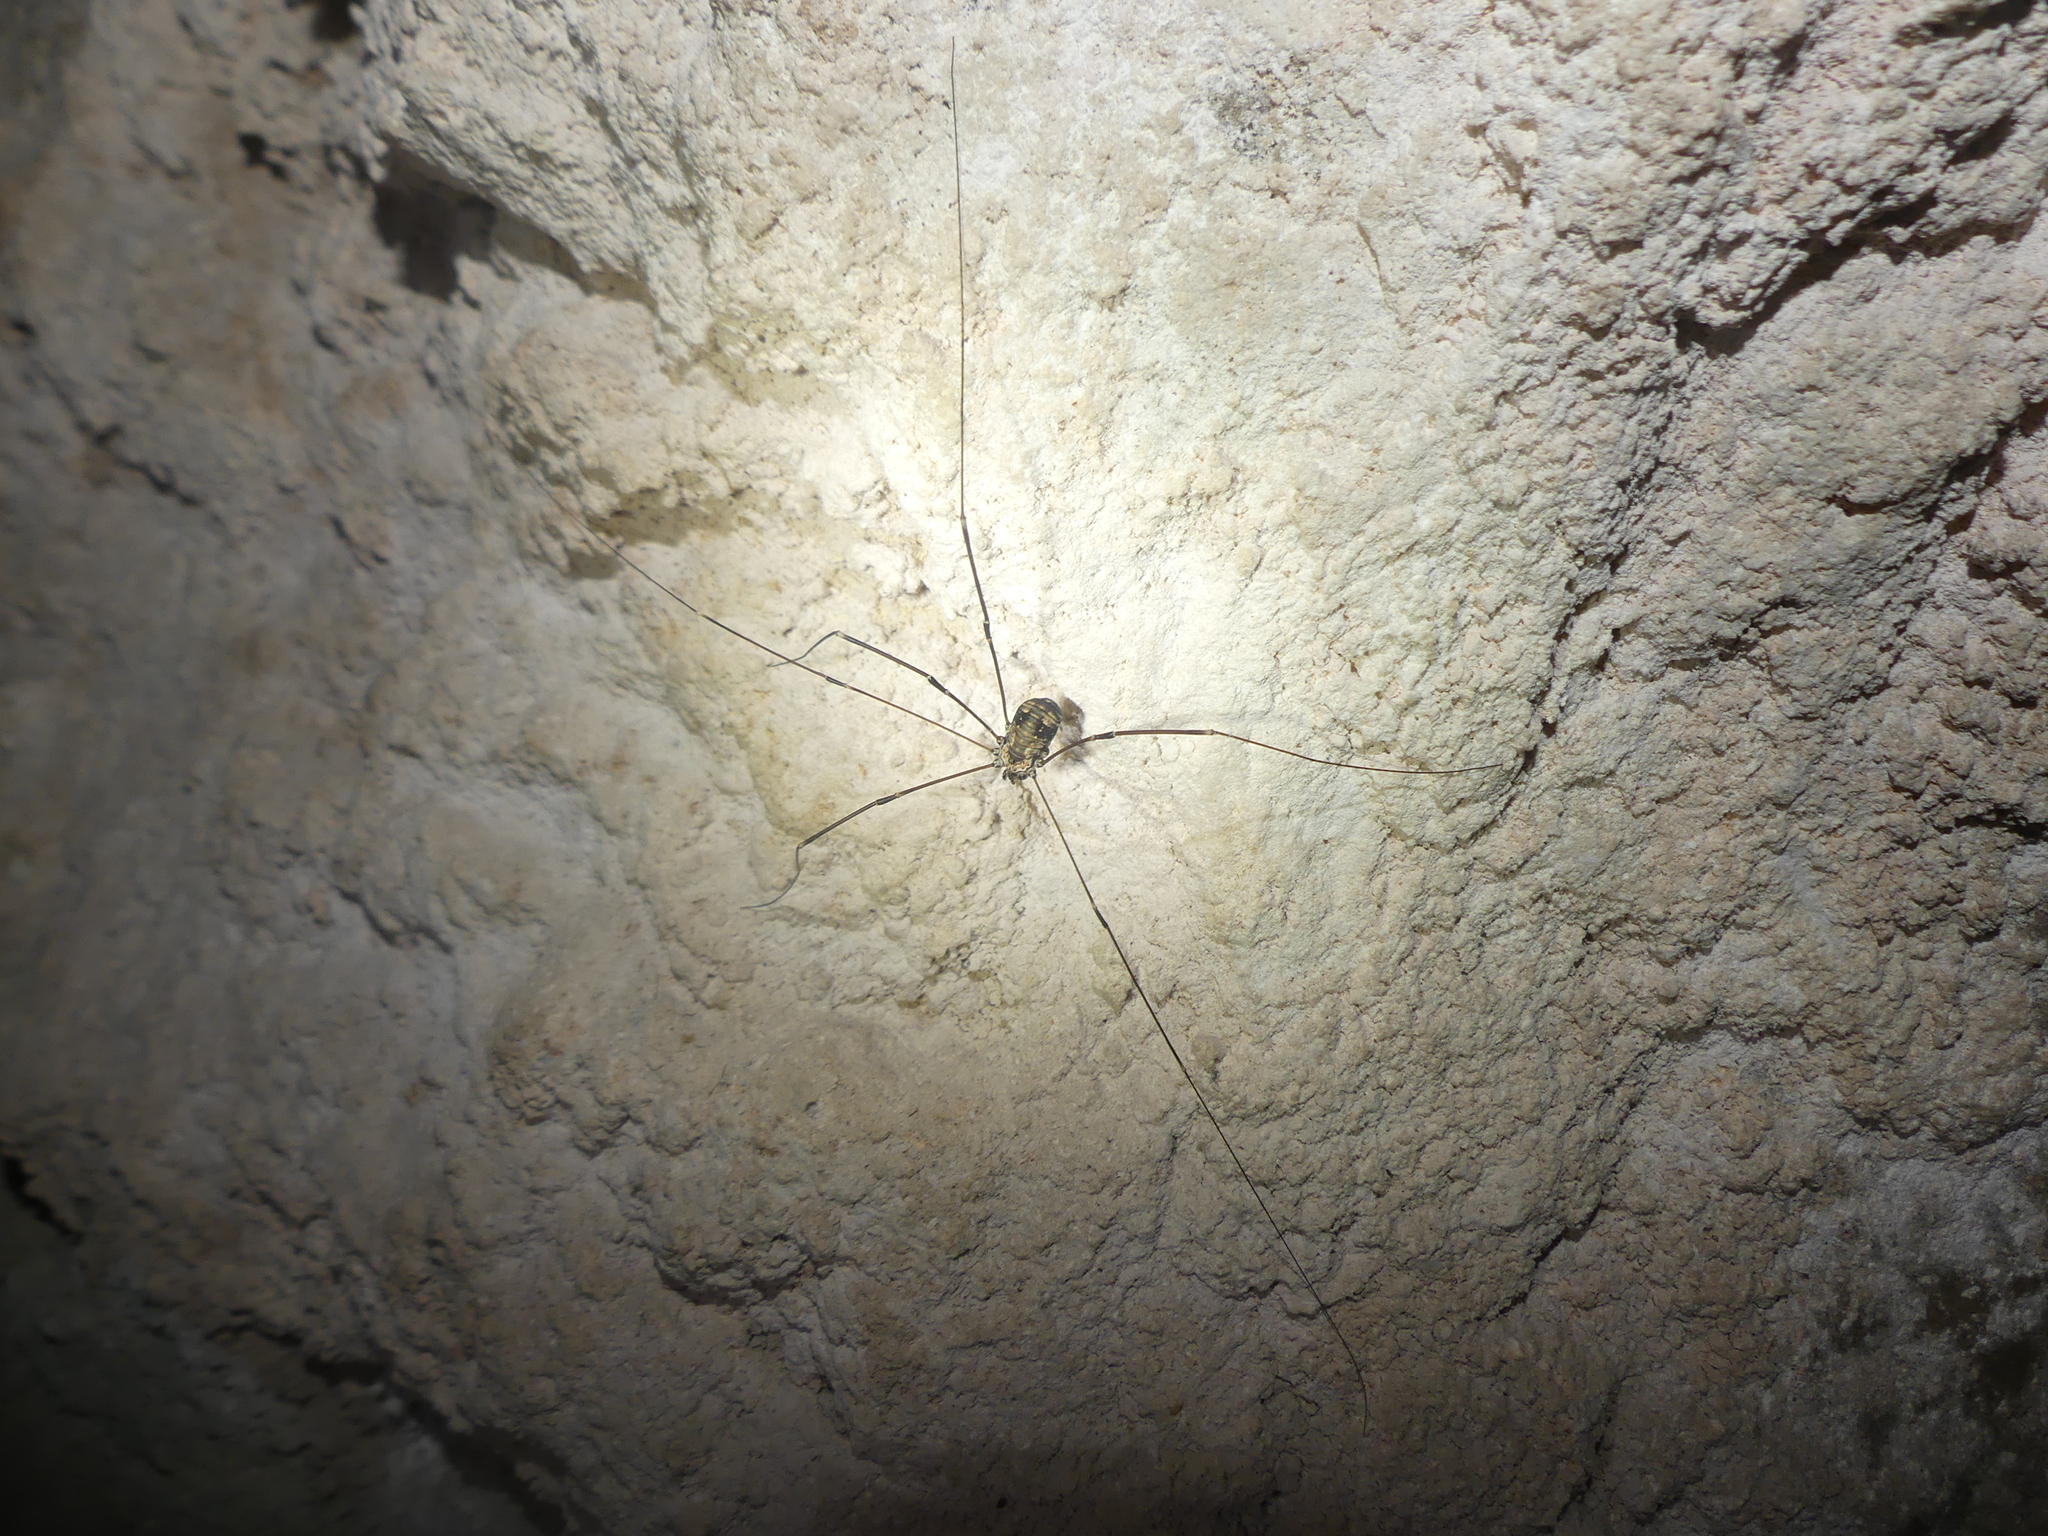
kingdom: Animalia
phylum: Arthropoda
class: Arachnida
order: Opiliones
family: Sclerosomatidae
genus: Leiobunum
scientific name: Leiobunum limbatum
